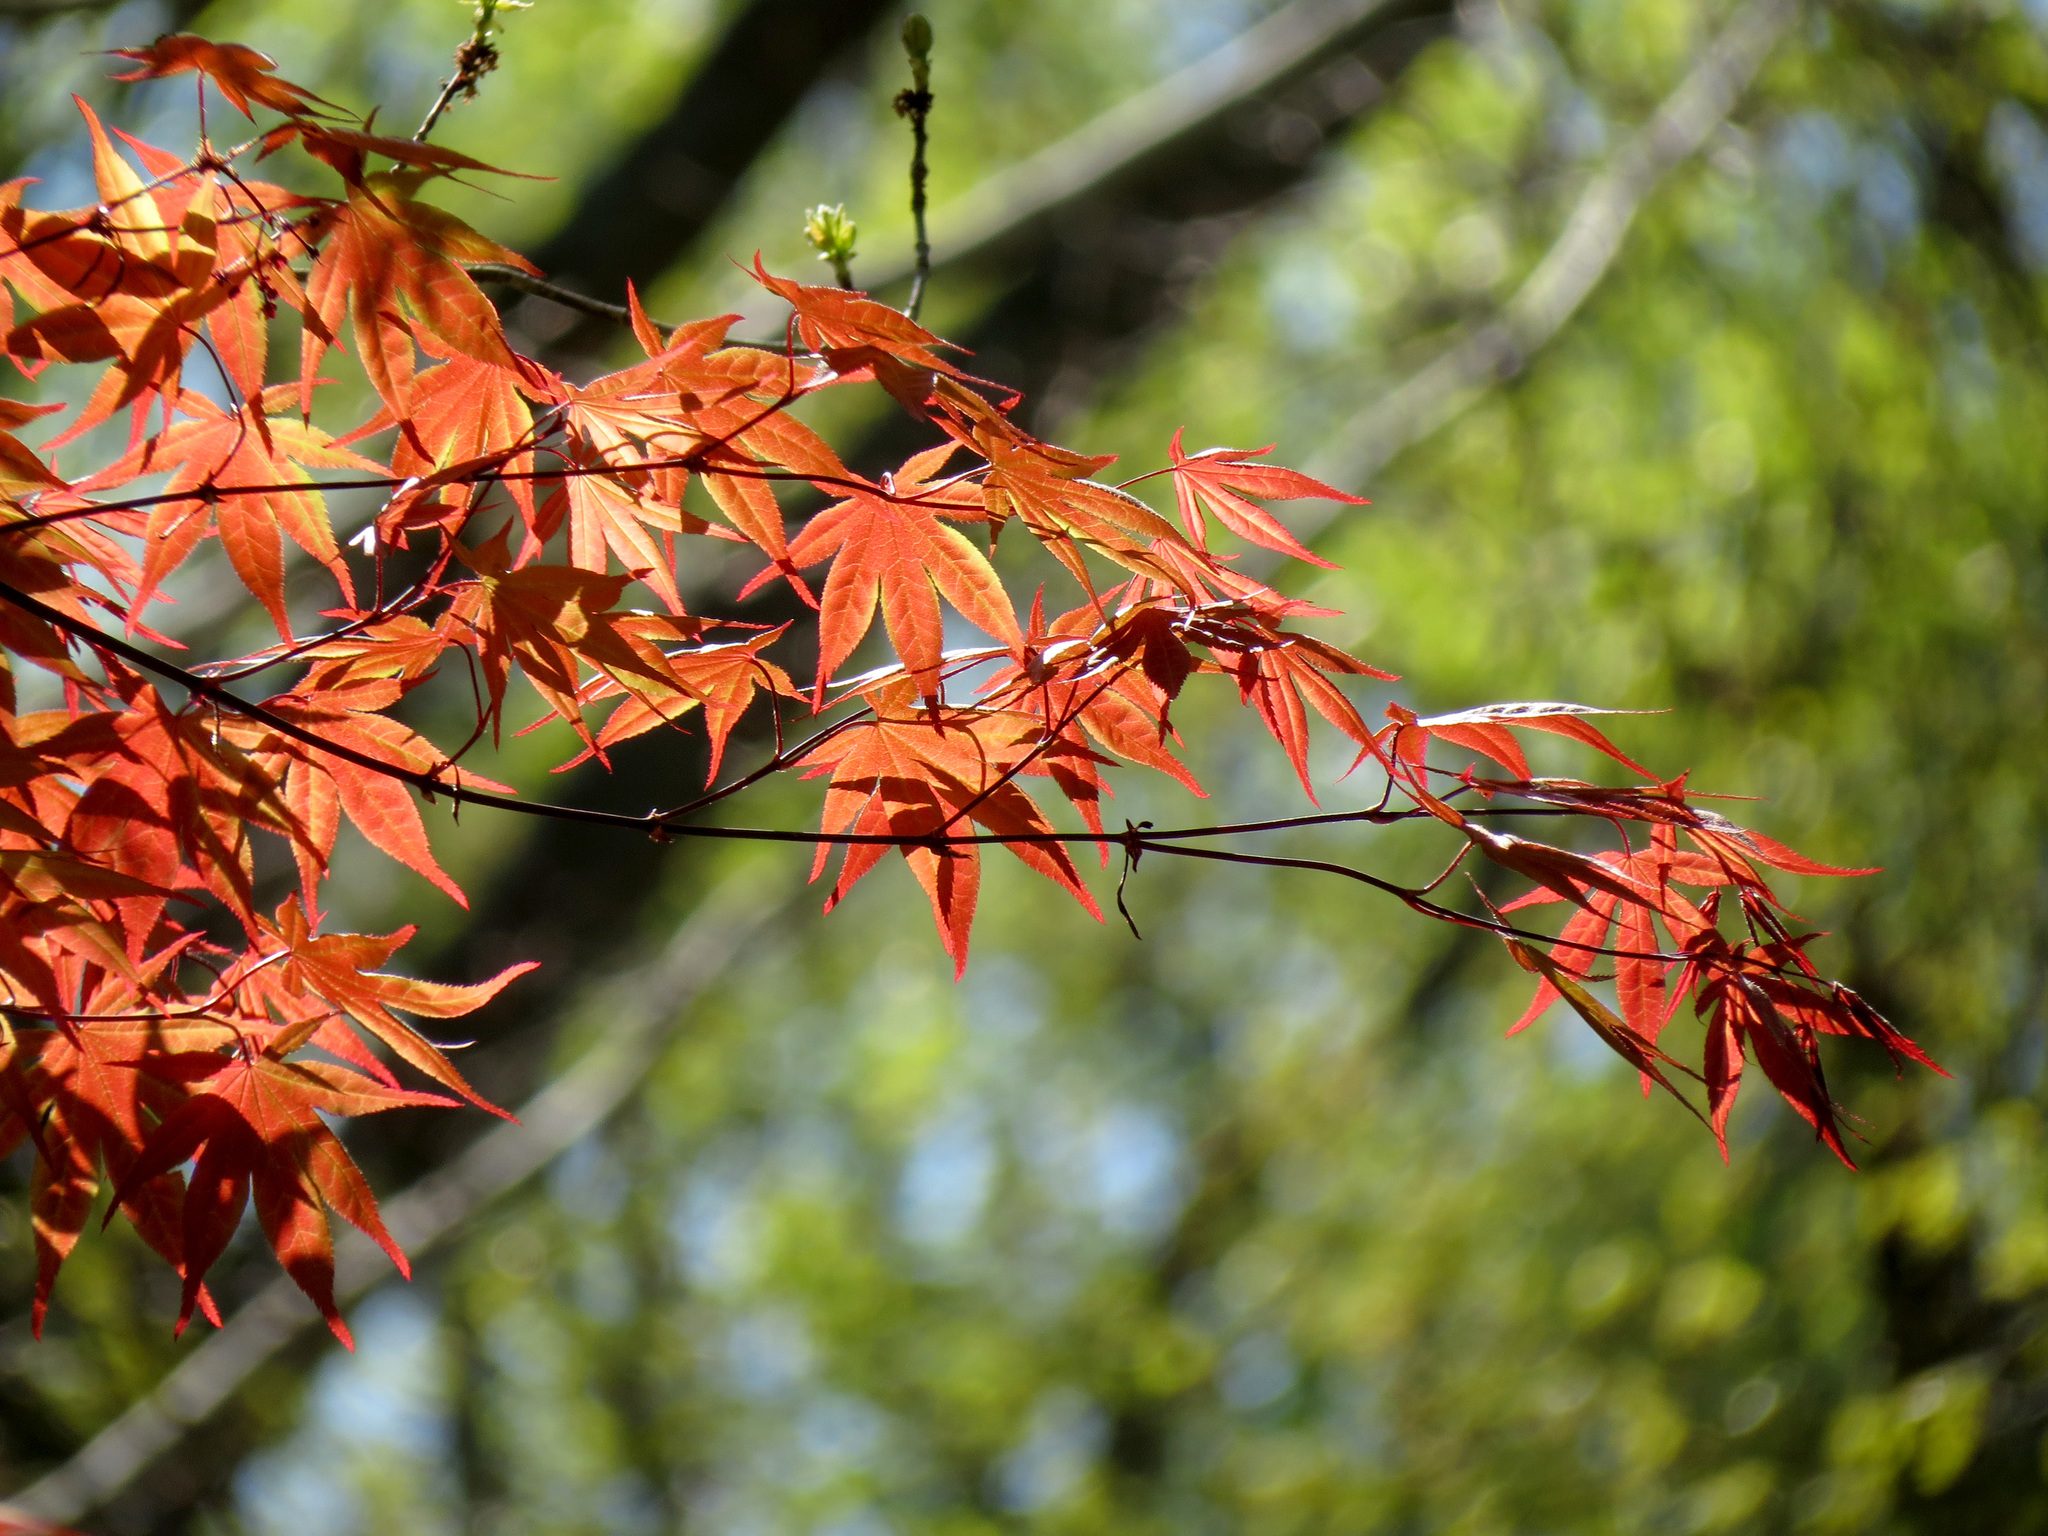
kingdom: Plantae
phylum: Tracheophyta
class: Magnoliopsida
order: Sapindales
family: Sapindaceae
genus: Acer
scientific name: Acer palmatum
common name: Japanese maple
